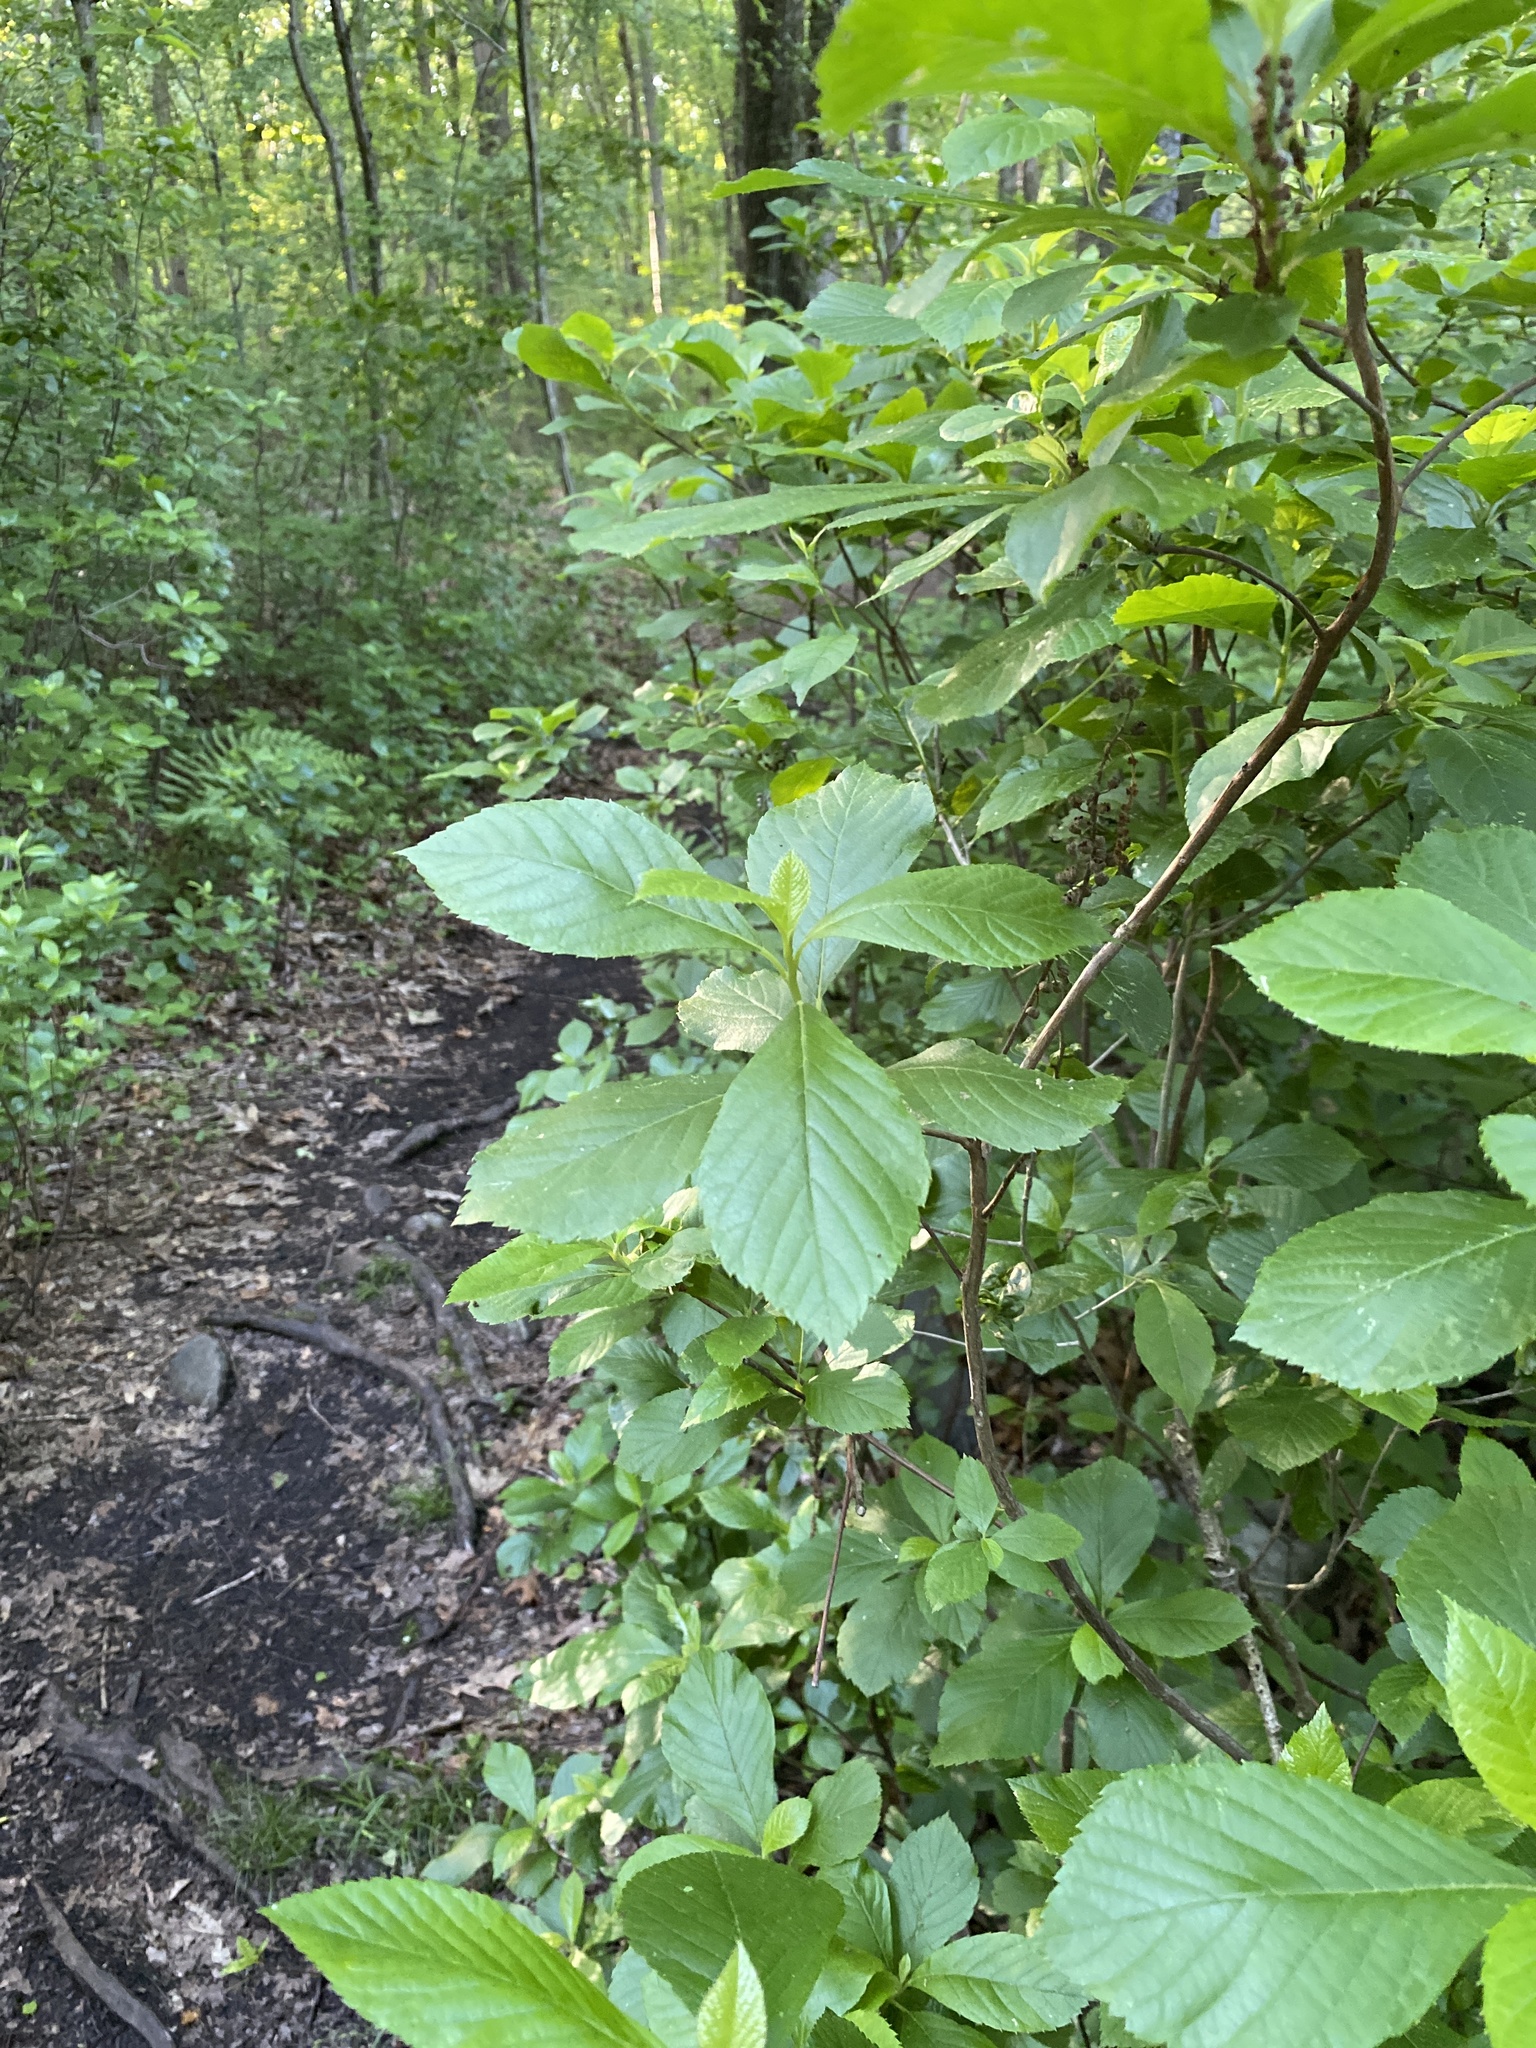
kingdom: Plantae
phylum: Tracheophyta
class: Magnoliopsida
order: Ericales
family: Clethraceae
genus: Clethra
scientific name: Clethra alnifolia
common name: Sweet pepperbush
